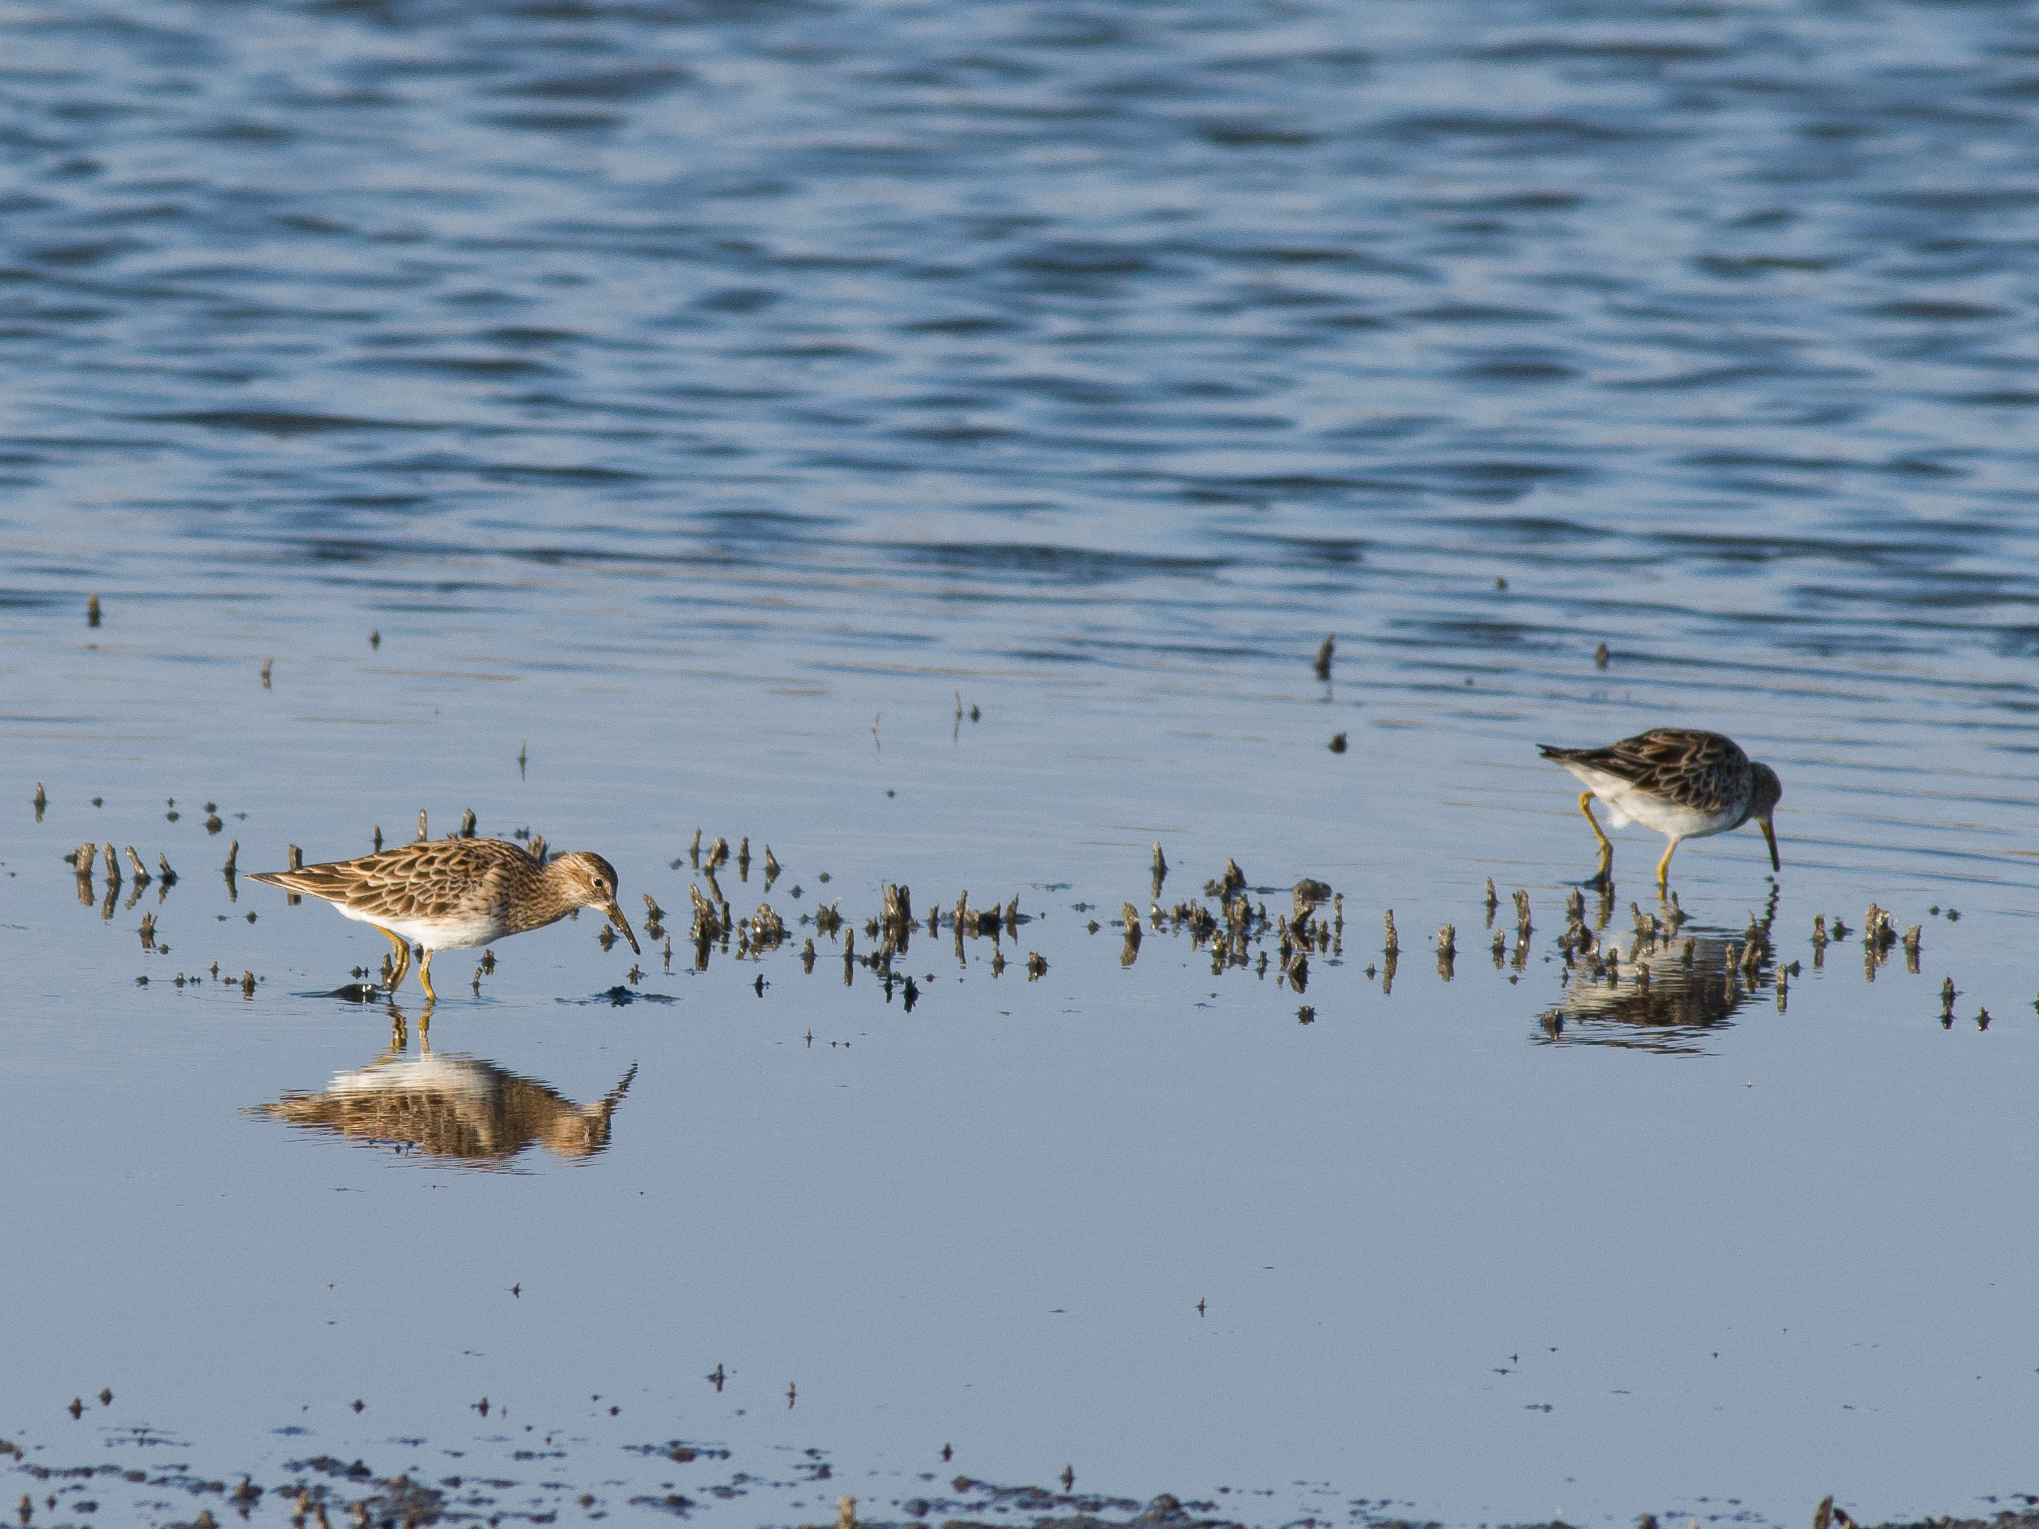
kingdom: Animalia
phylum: Chordata
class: Aves
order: Charadriiformes
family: Scolopacidae
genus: Calidris
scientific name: Calidris melanotos
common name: Pectoral sandpiper
